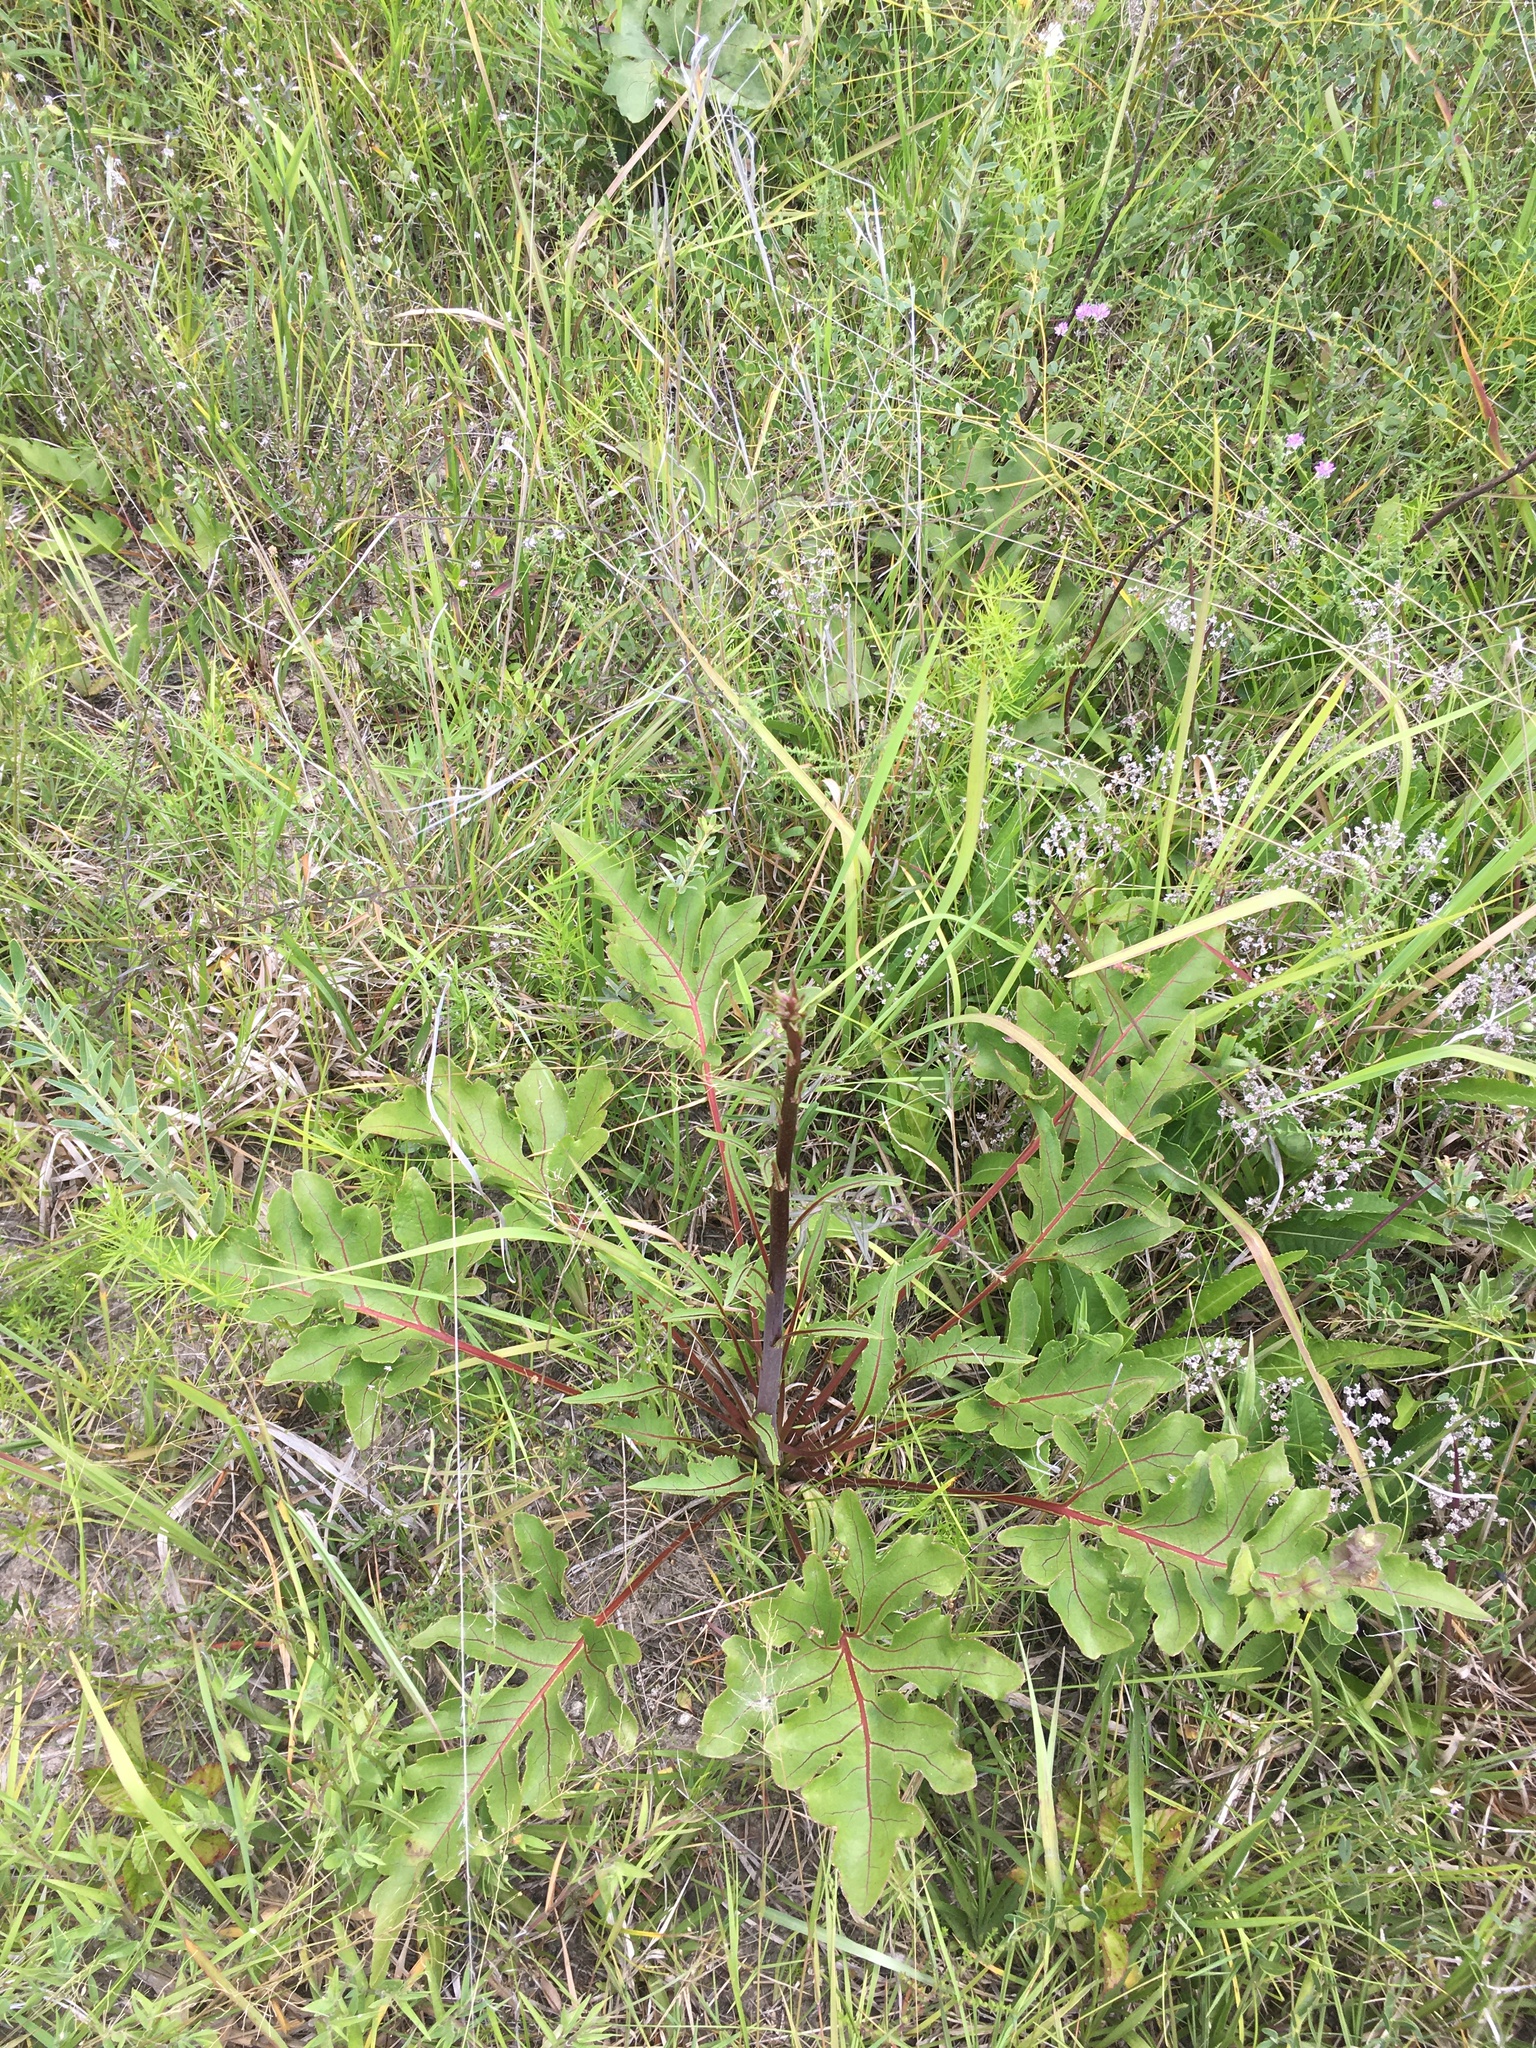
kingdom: Plantae
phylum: Tracheophyta
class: Magnoliopsida
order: Asterales
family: Asteraceae
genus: Silphium
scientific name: Silphium compositum
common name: Lesser basal-leaf rosinweed
